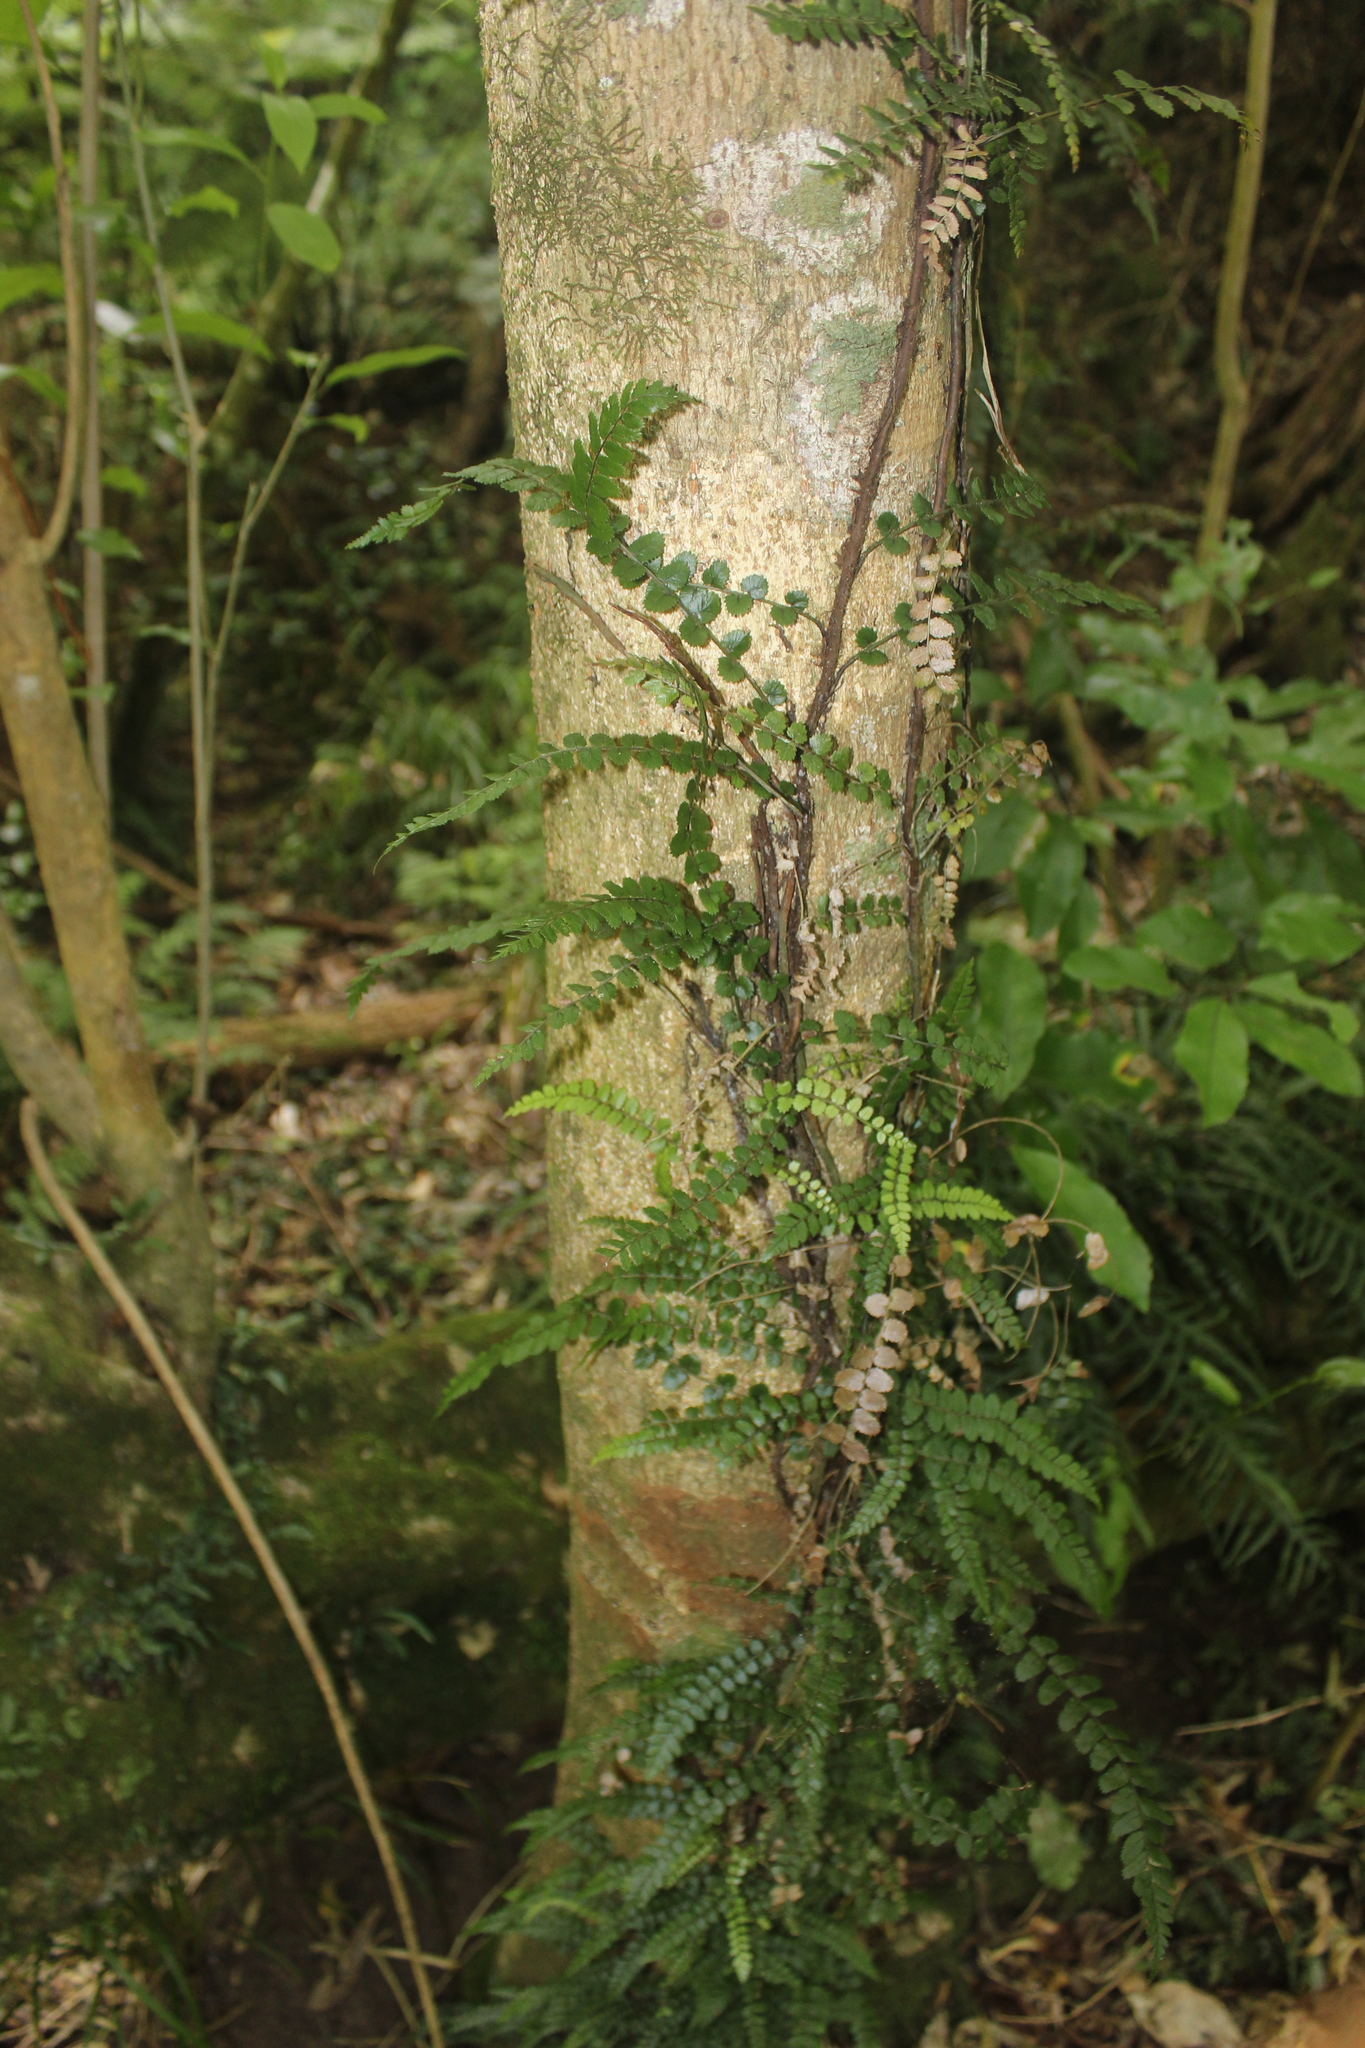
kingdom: Plantae
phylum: Tracheophyta
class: Polypodiopsida
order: Polypodiales
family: Blechnaceae
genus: Icarus
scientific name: Icarus filiformis
